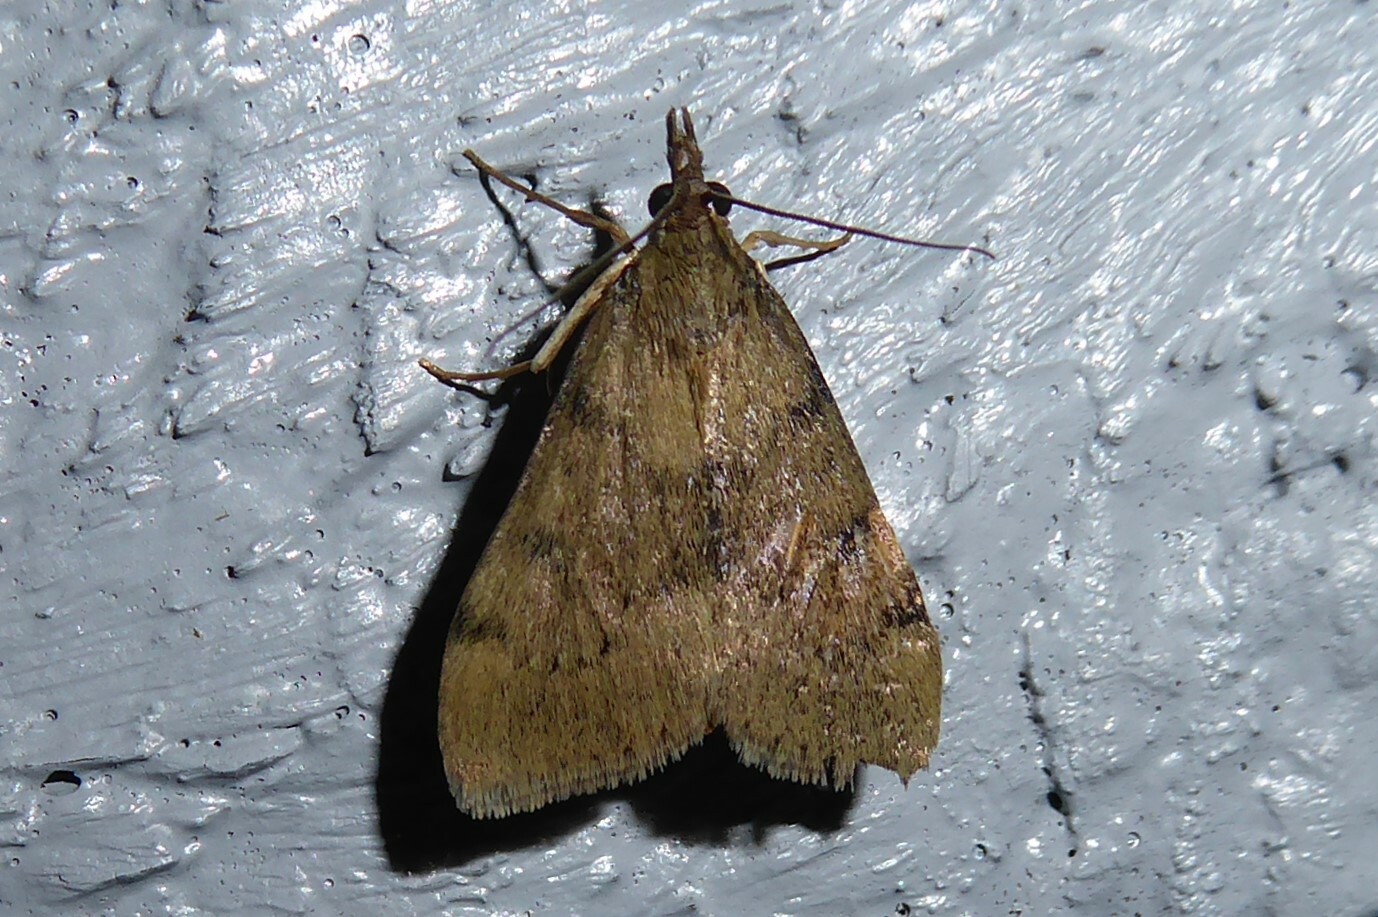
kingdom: Animalia
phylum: Arthropoda
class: Insecta
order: Lepidoptera
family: Crambidae
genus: Uresiphita
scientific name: Uresiphita
